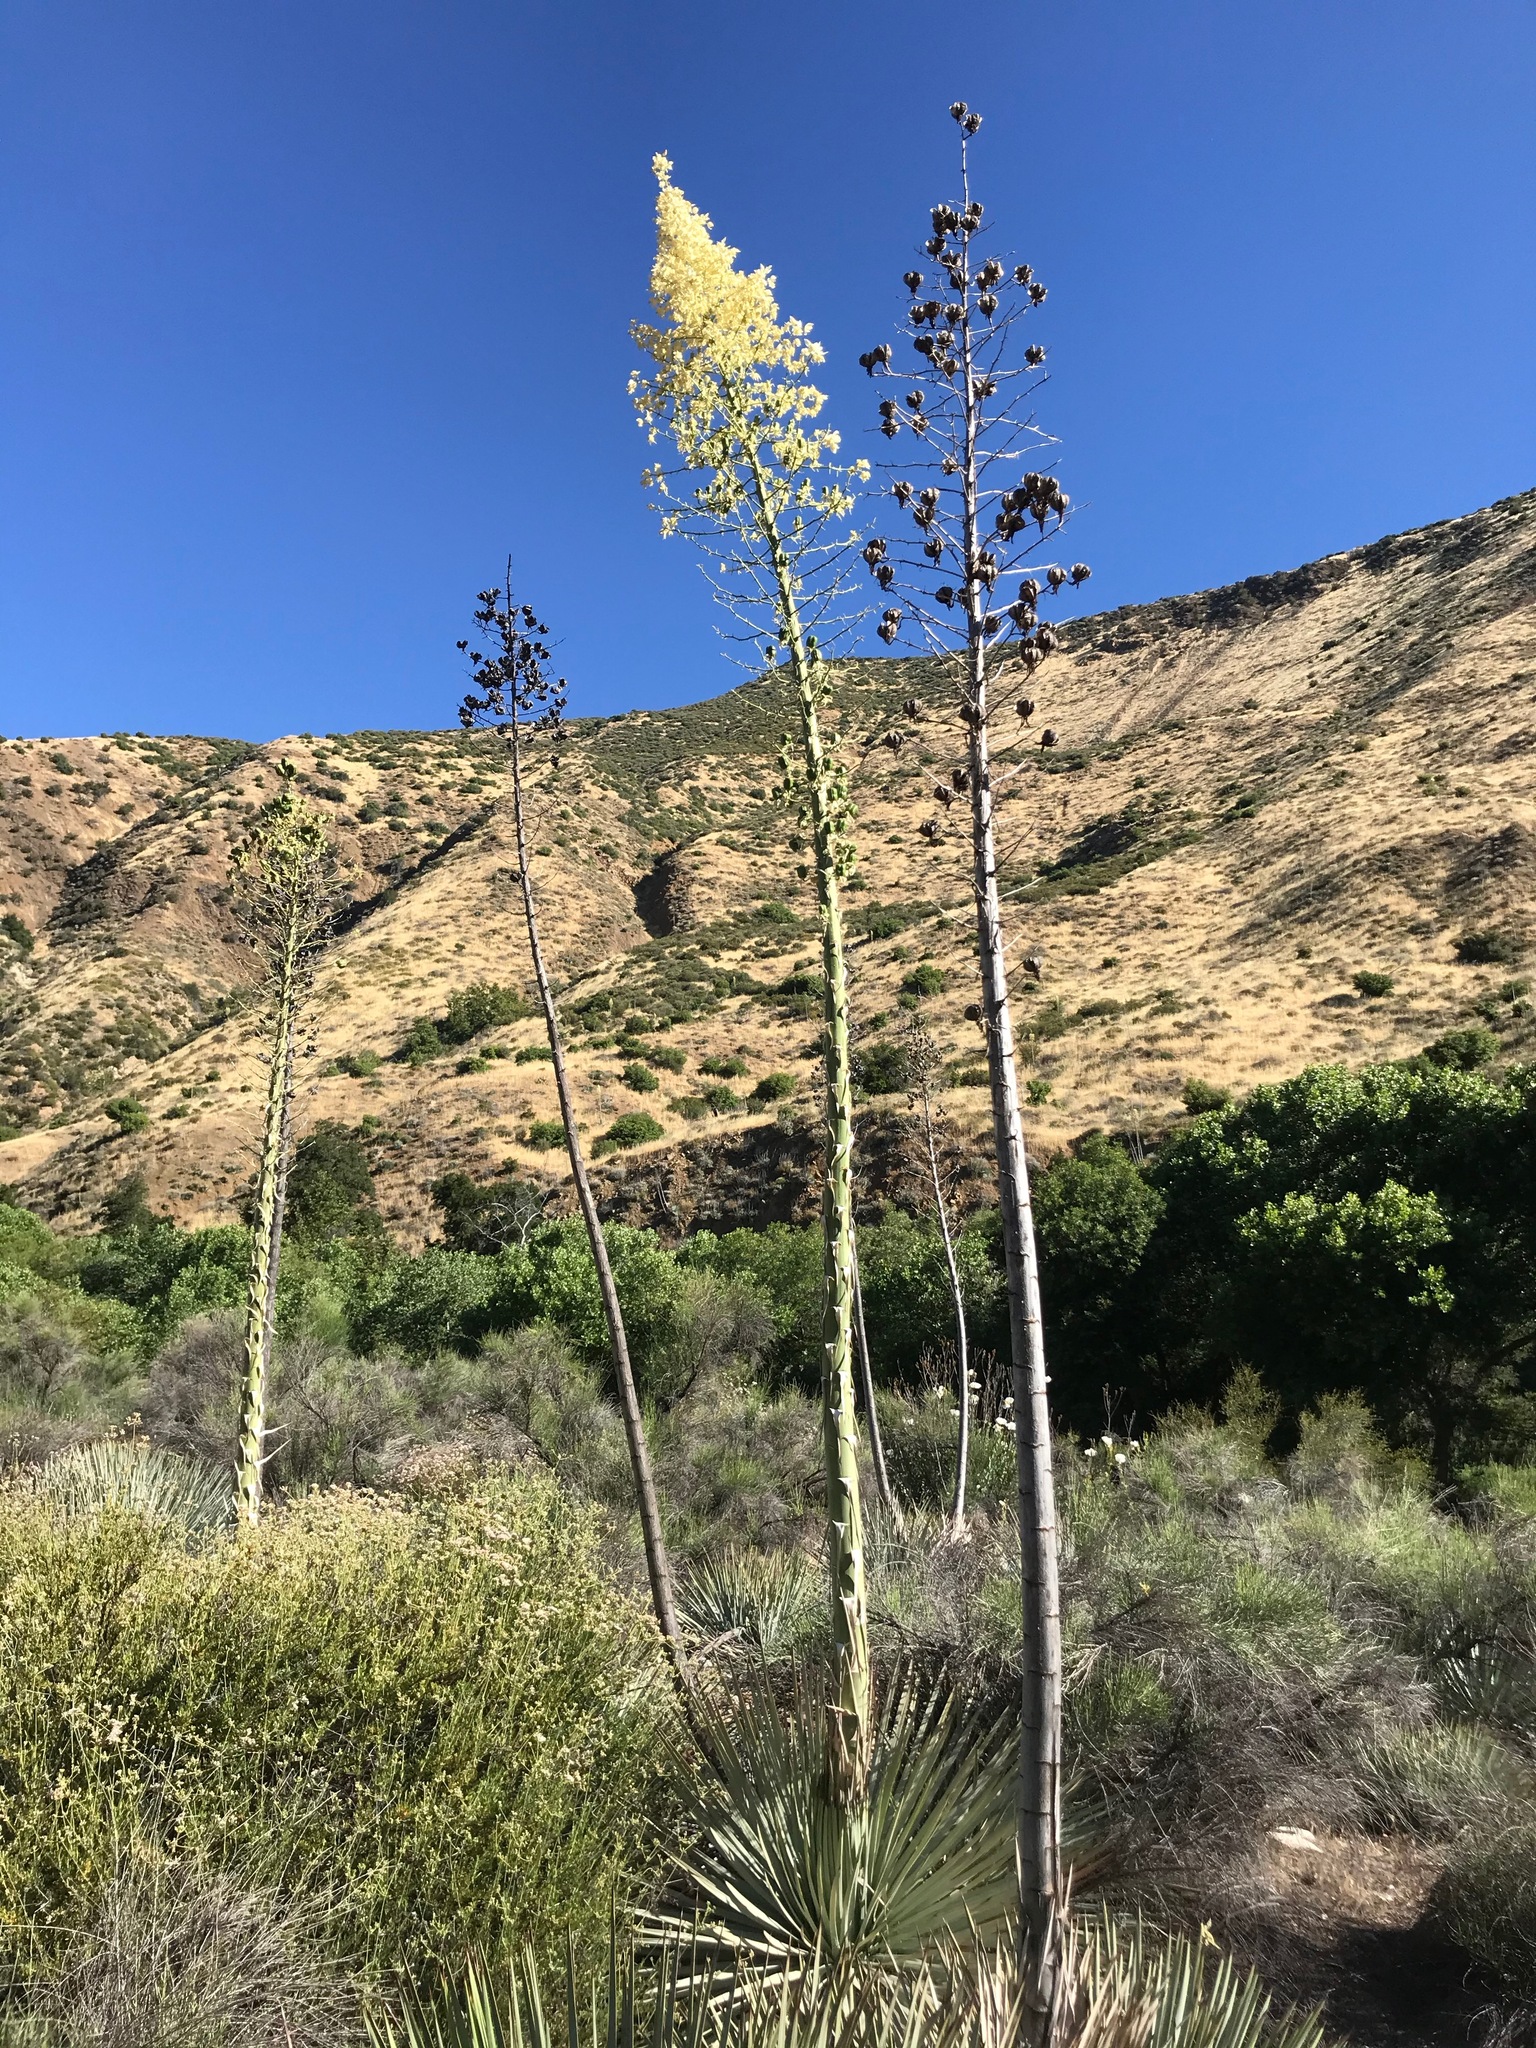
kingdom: Plantae
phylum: Tracheophyta
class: Liliopsida
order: Asparagales
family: Asparagaceae
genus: Hesperoyucca
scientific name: Hesperoyucca whipplei
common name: Our lord's-candle
